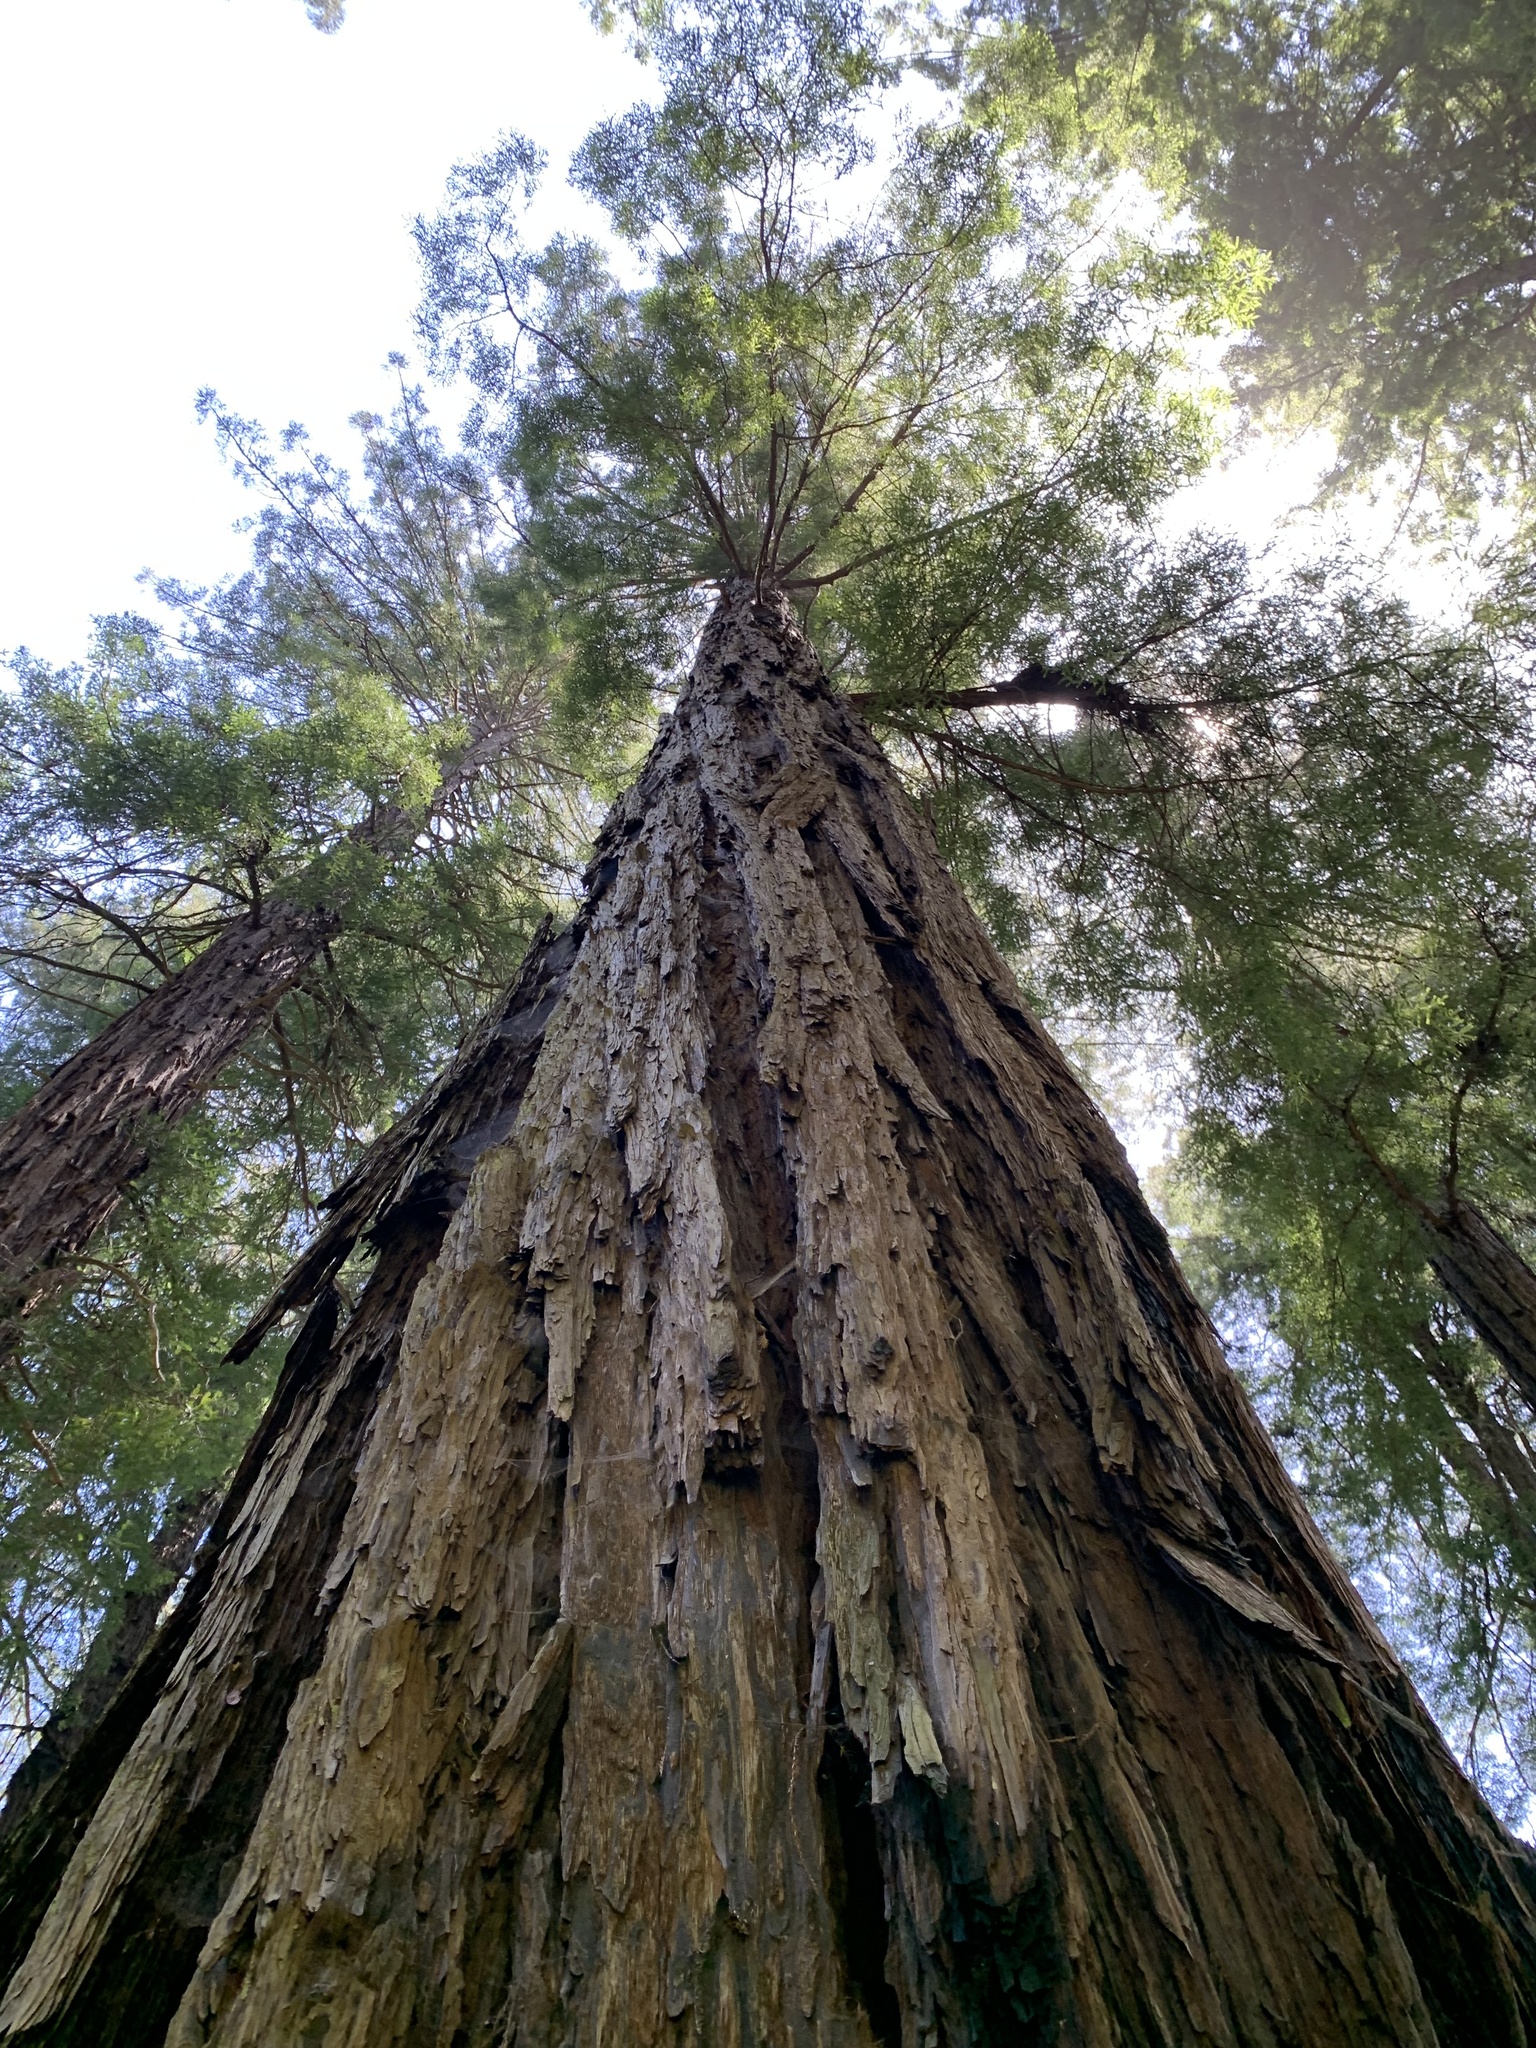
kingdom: Plantae
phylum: Tracheophyta
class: Pinopsida
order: Pinales
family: Cupressaceae
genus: Sequoia
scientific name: Sequoia sempervirens
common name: Coast redwood
